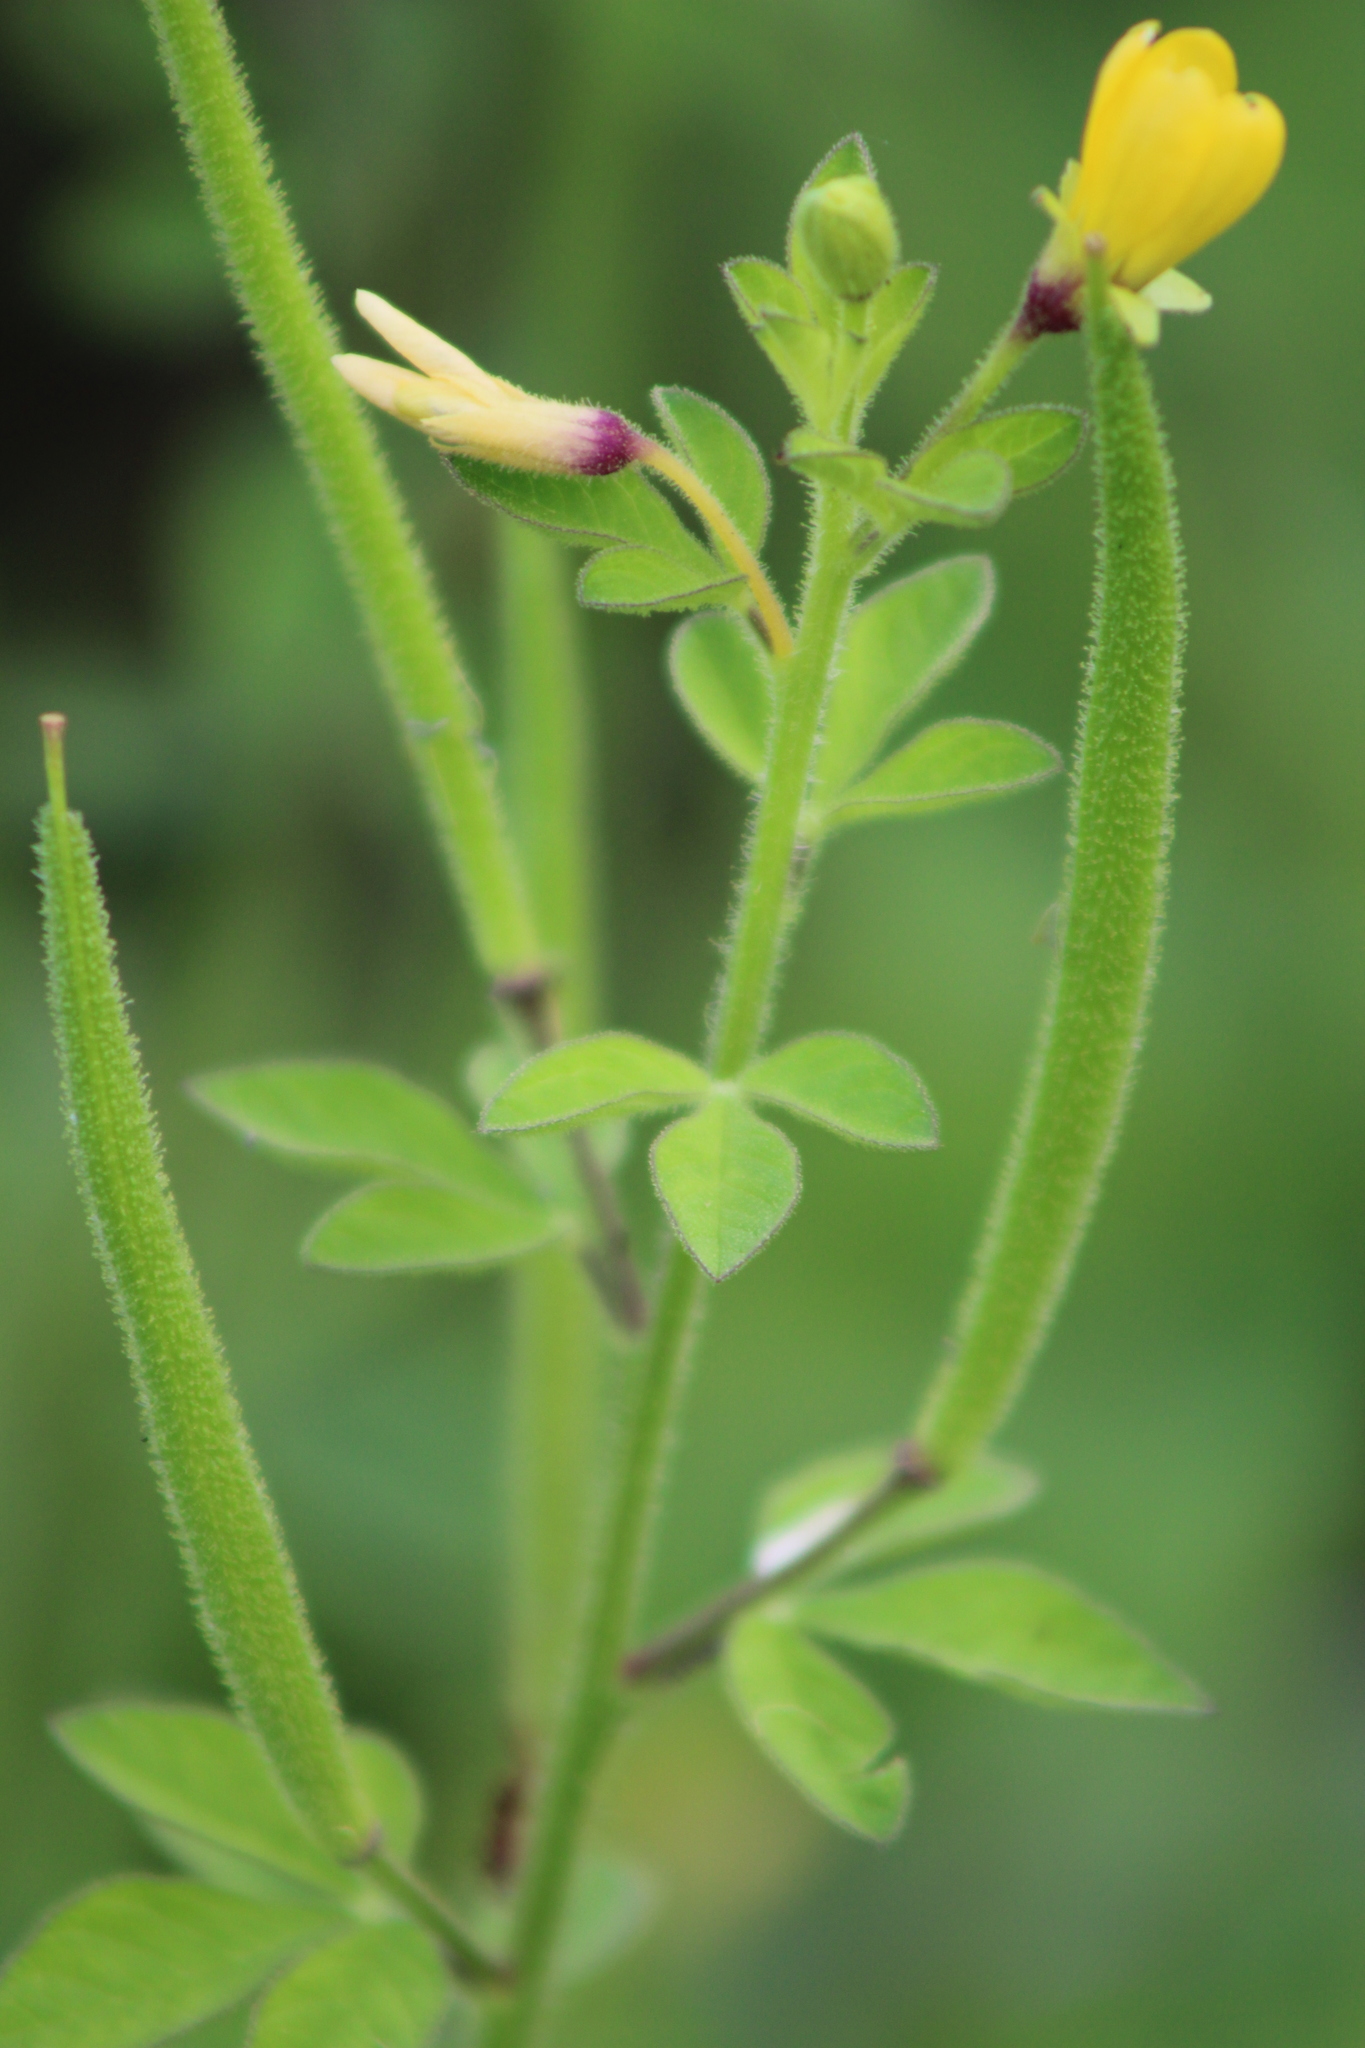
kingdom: Plantae
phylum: Tracheophyta
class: Magnoliopsida
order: Brassicales
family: Cleomaceae
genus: Arivela
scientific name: Arivela viscosa
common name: Asian spiderflower
